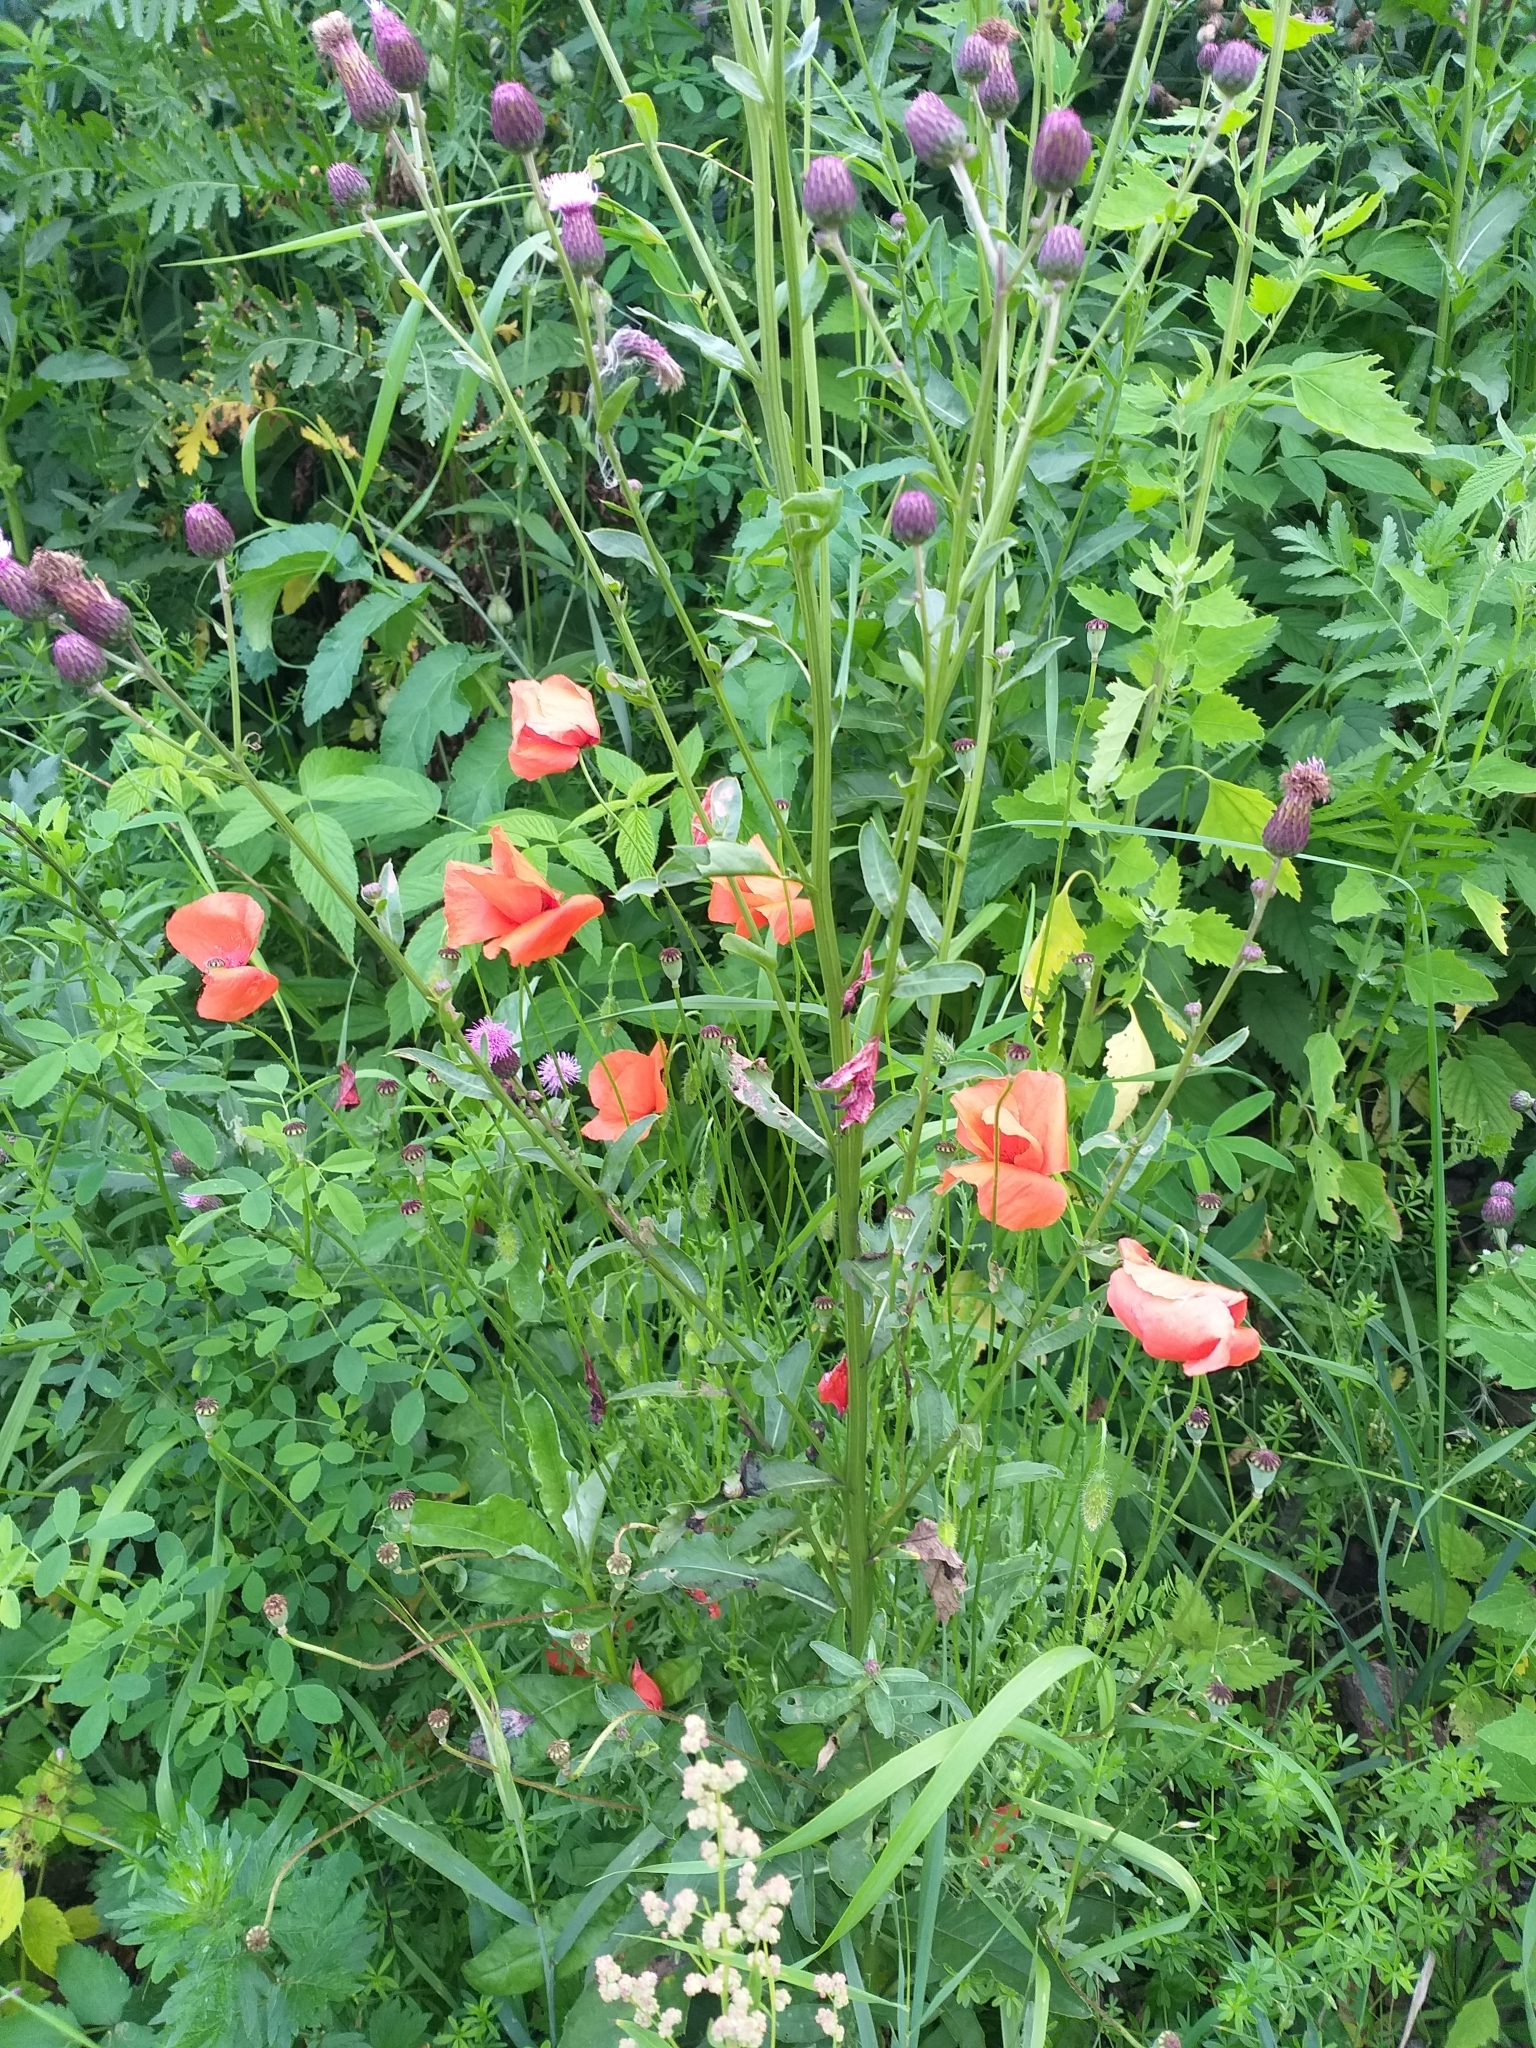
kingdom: Plantae
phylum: Tracheophyta
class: Magnoliopsida
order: Ranunculales
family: Papaveraceae
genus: Papaver
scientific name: Papaver rhoeas
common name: Corn poppy
